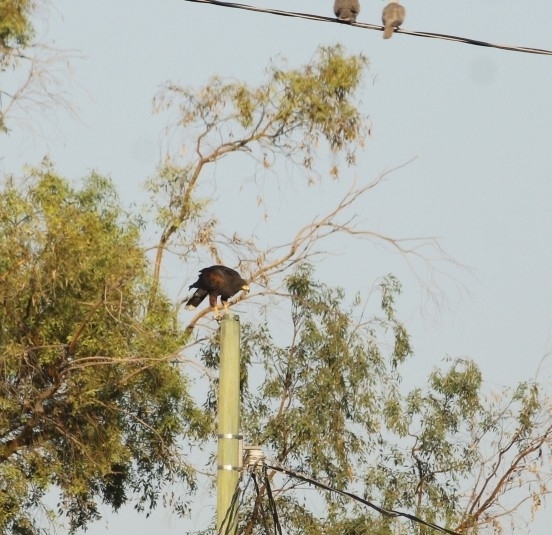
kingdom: Animalia
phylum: Chordata
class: Aves
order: Accipitriformes
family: Accipitridae
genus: Parabuteo
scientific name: Parabuteo unicinctus
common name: Harris's hawk
